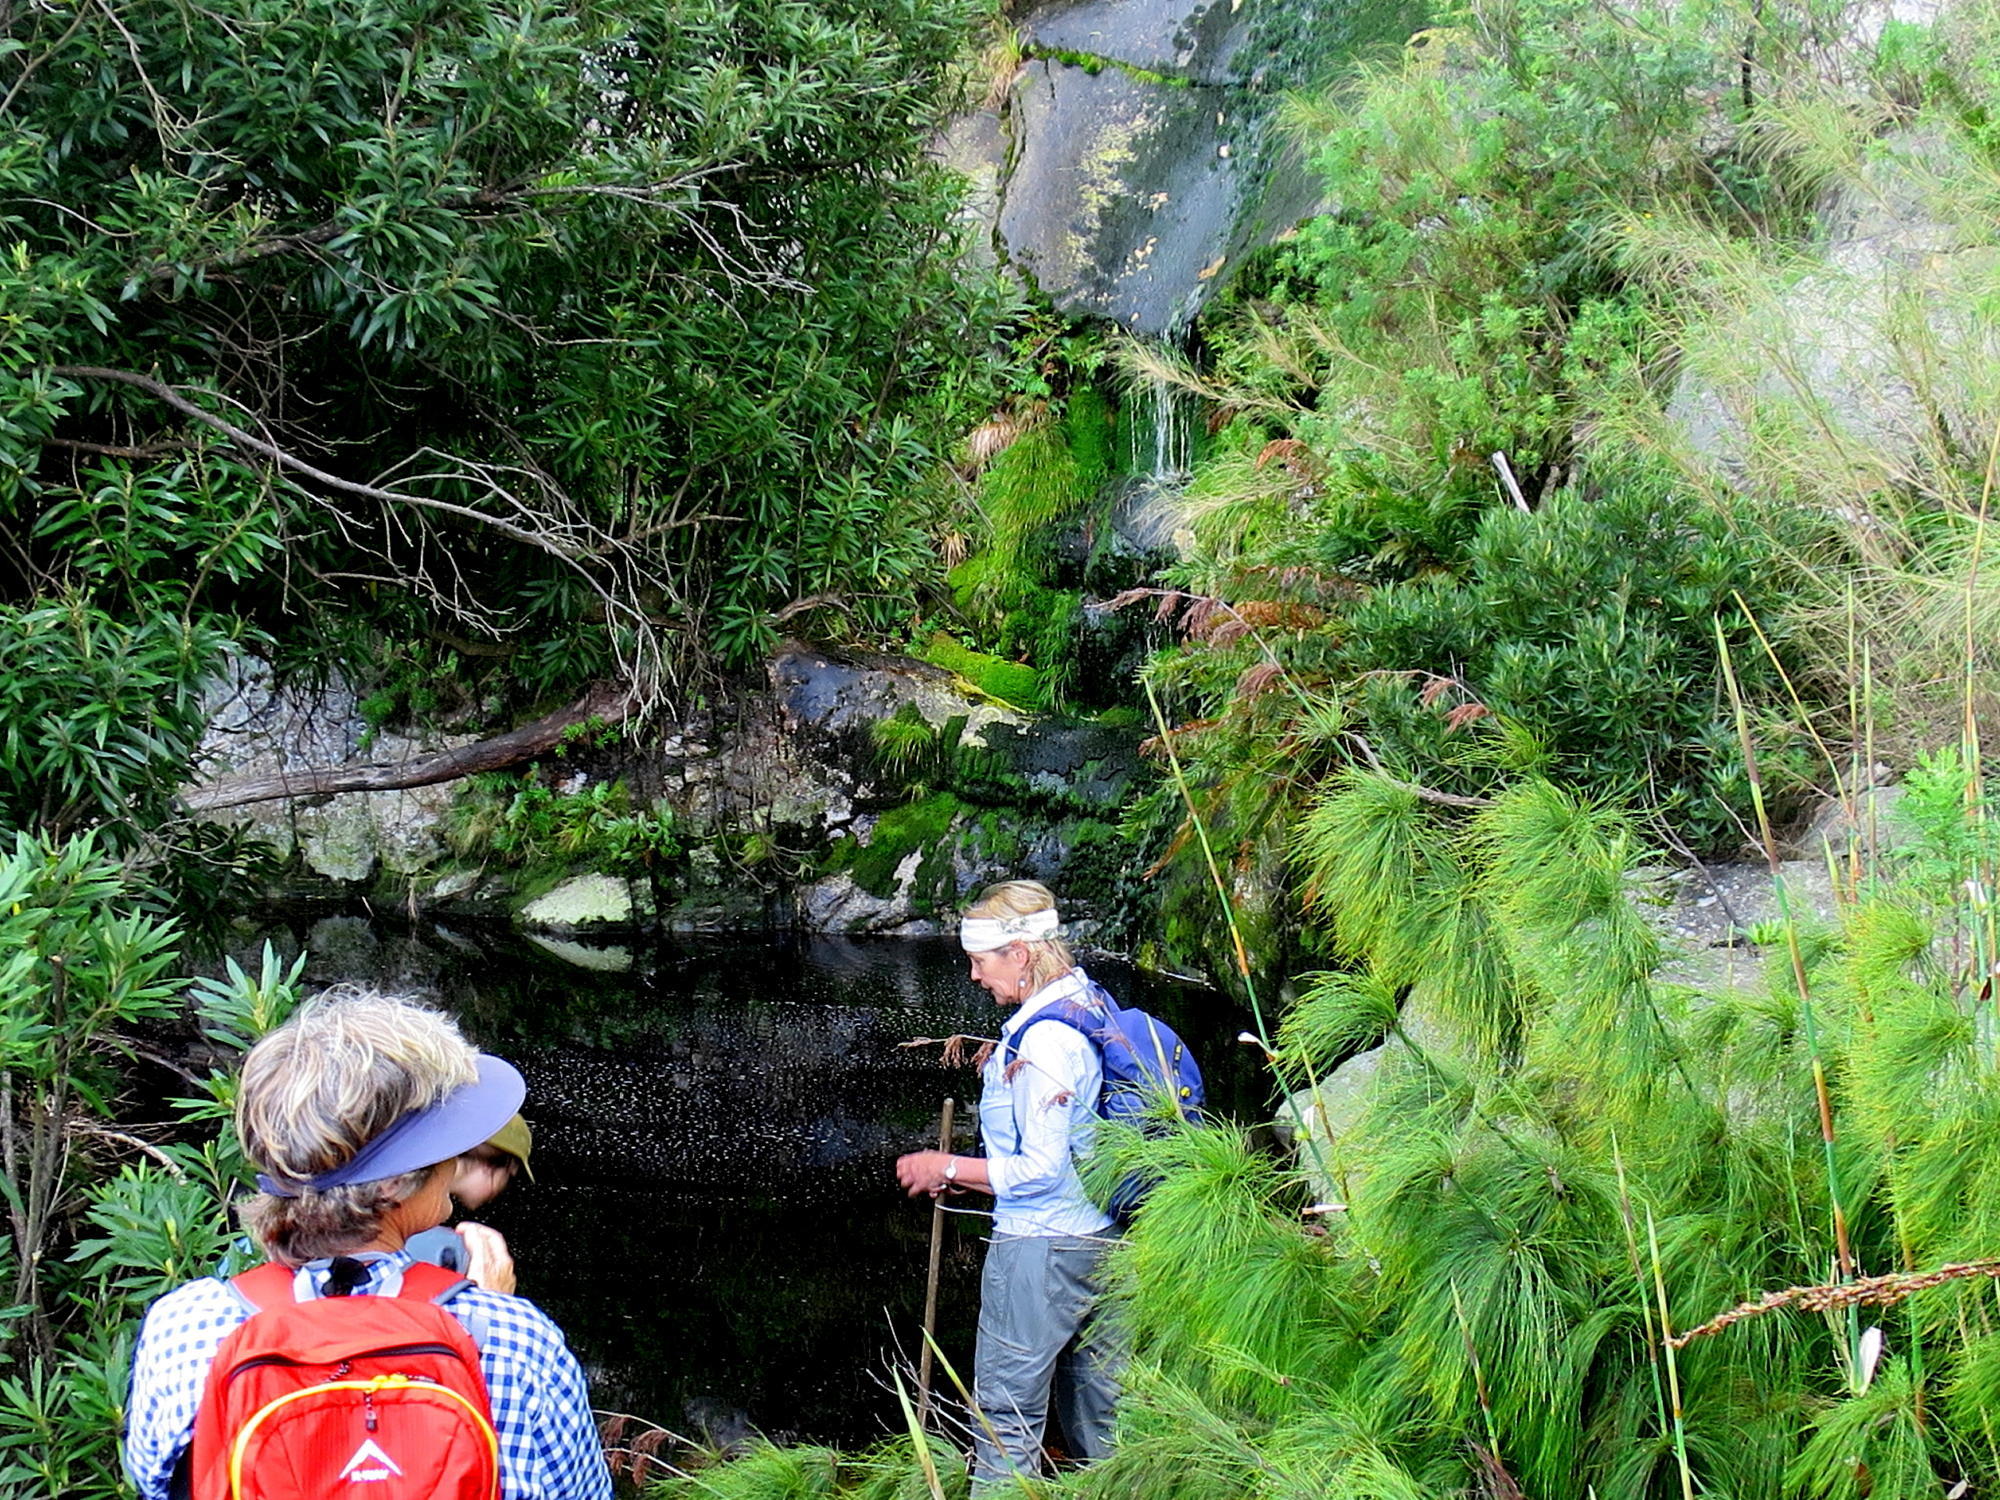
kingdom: Plantae
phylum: Tracheophyta
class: Magnoliopsida
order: Asterales
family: Asteraceae
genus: Brachylaena
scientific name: Brachylaena neriifolia
